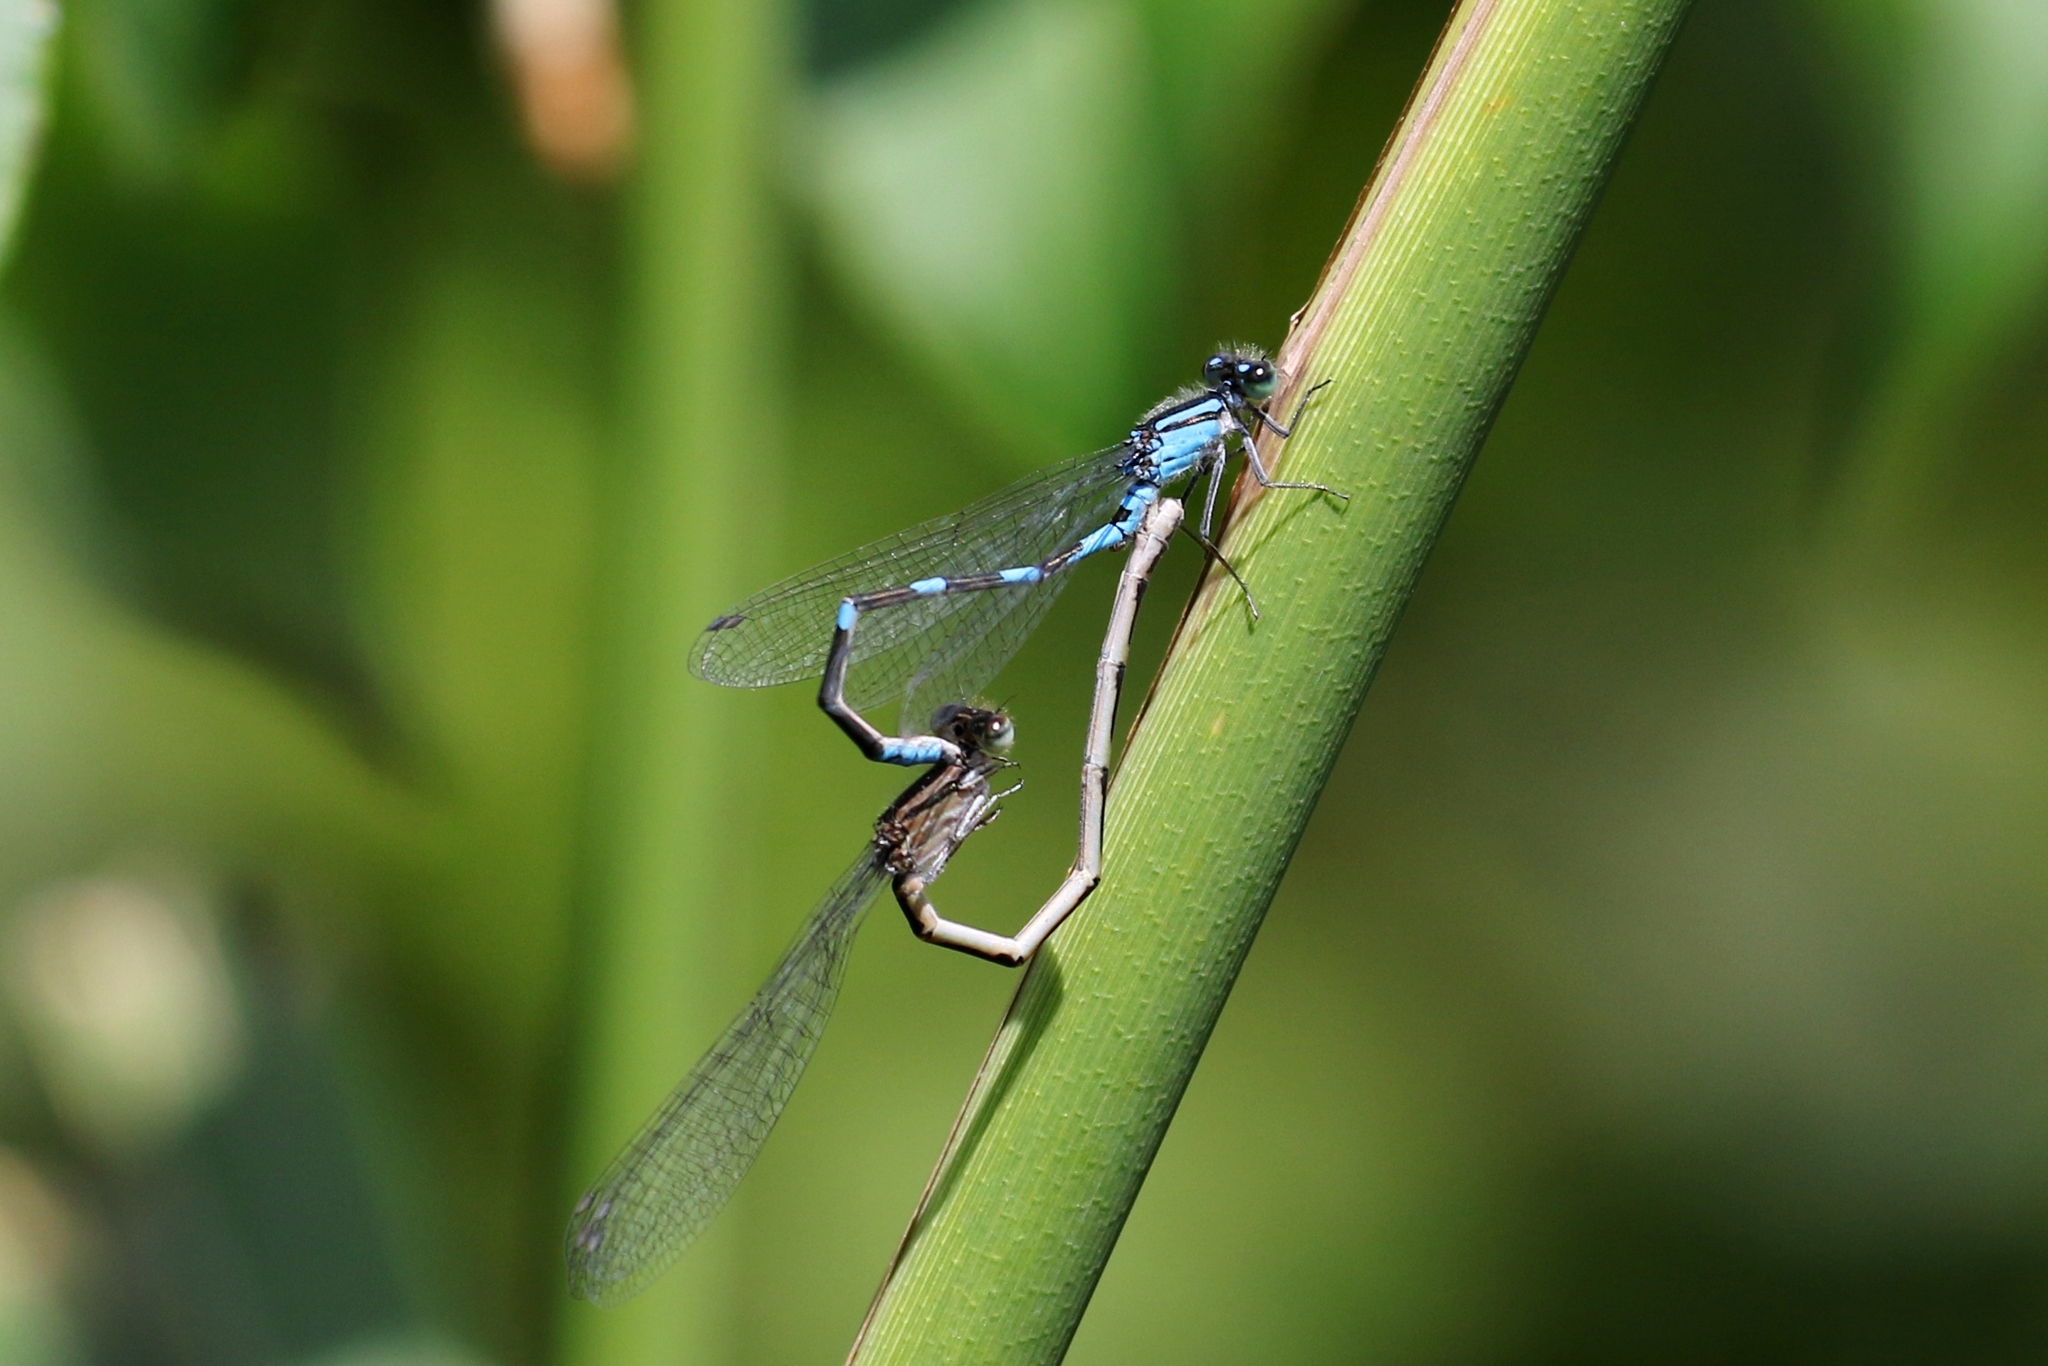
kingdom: Animalia
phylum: Arthropoda
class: Insecta
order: Odonata
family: Coenagrionidae
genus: Enallagma
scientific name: Enallagma carunculatum
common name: Tule bluet
